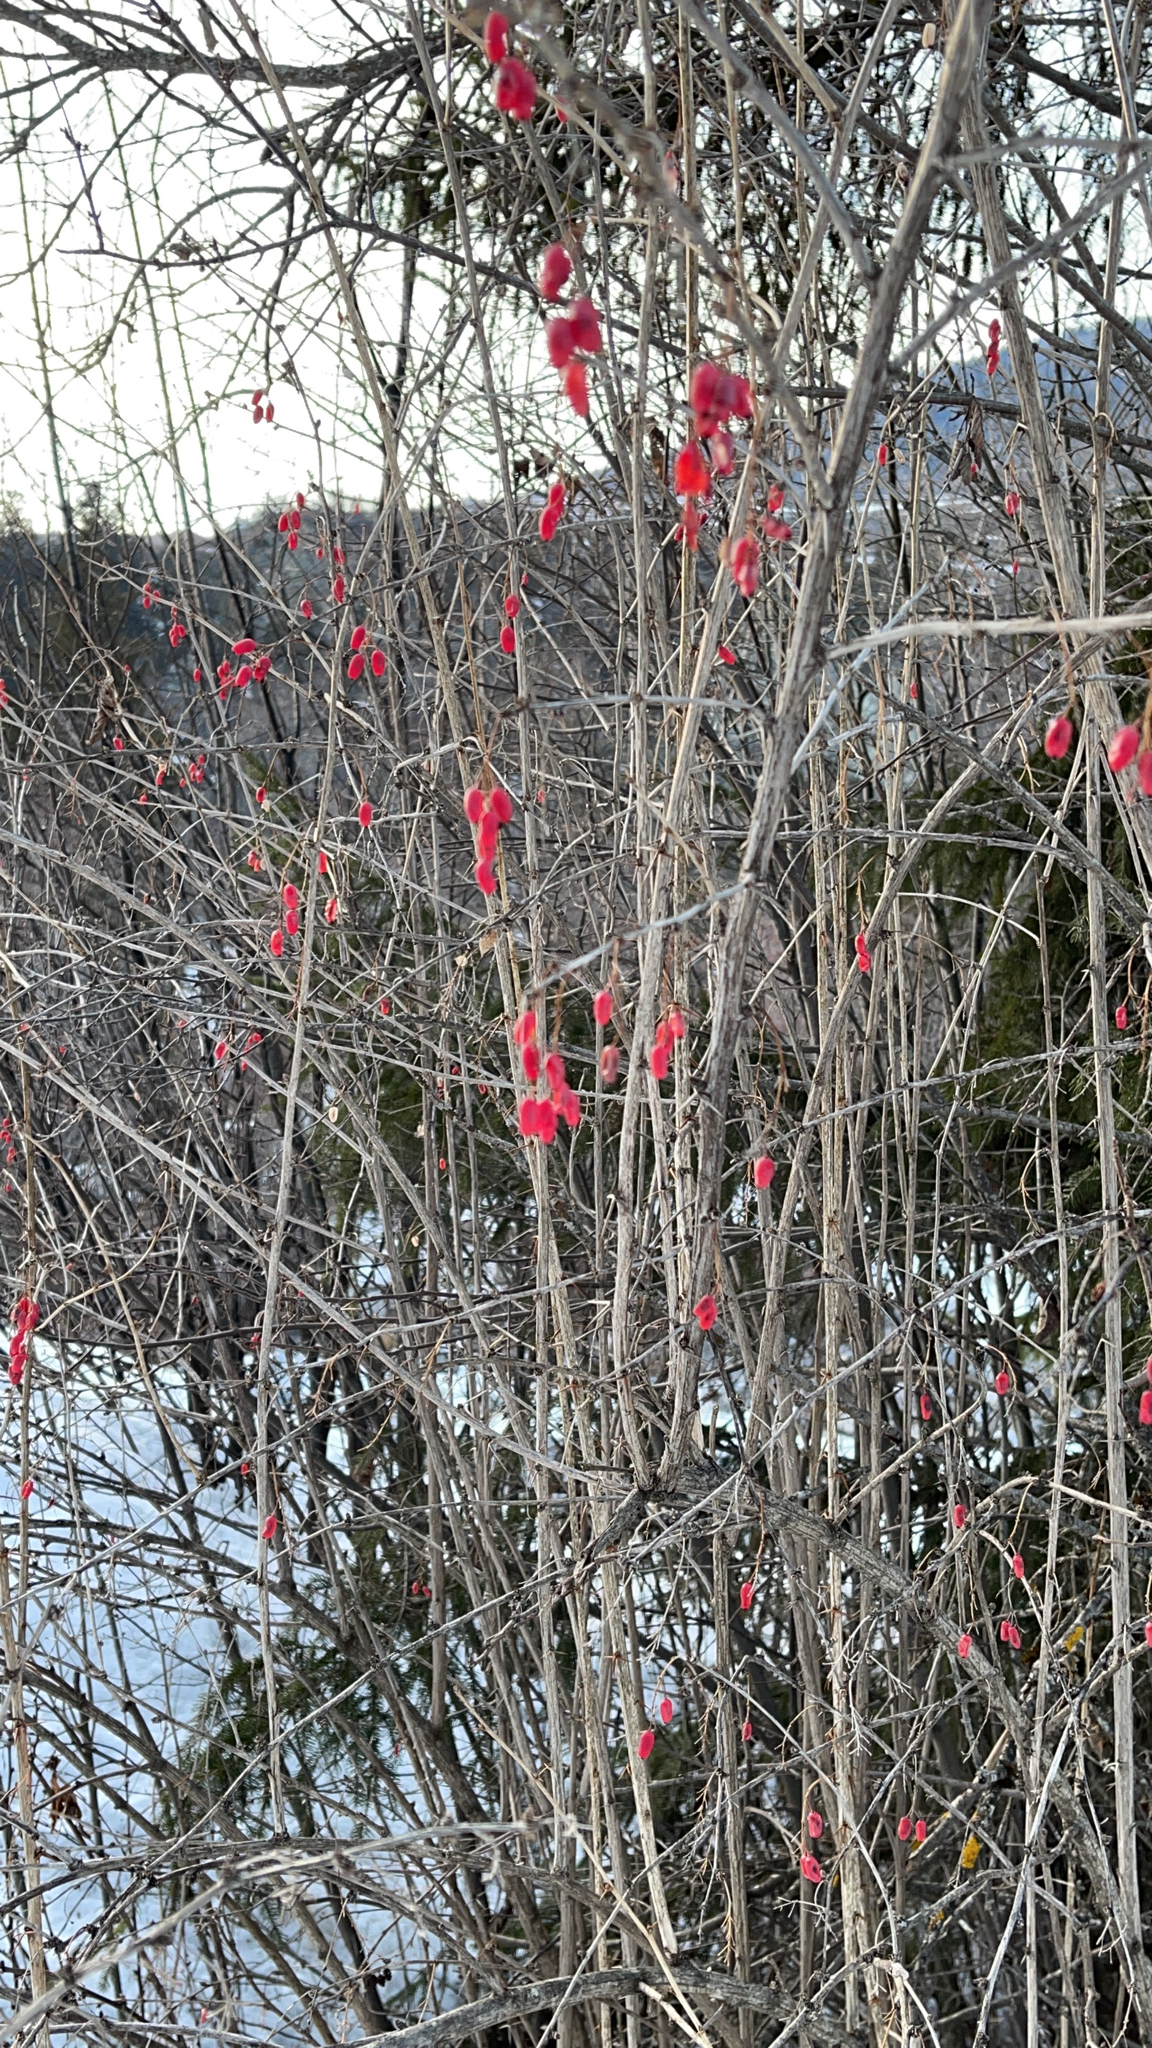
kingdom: Plantae
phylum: Tracheophyta
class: Magnoliopsida
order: Ranunculales
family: Berberidaceae
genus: Berberis
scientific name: Berberis vulgaris
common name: Barberry
